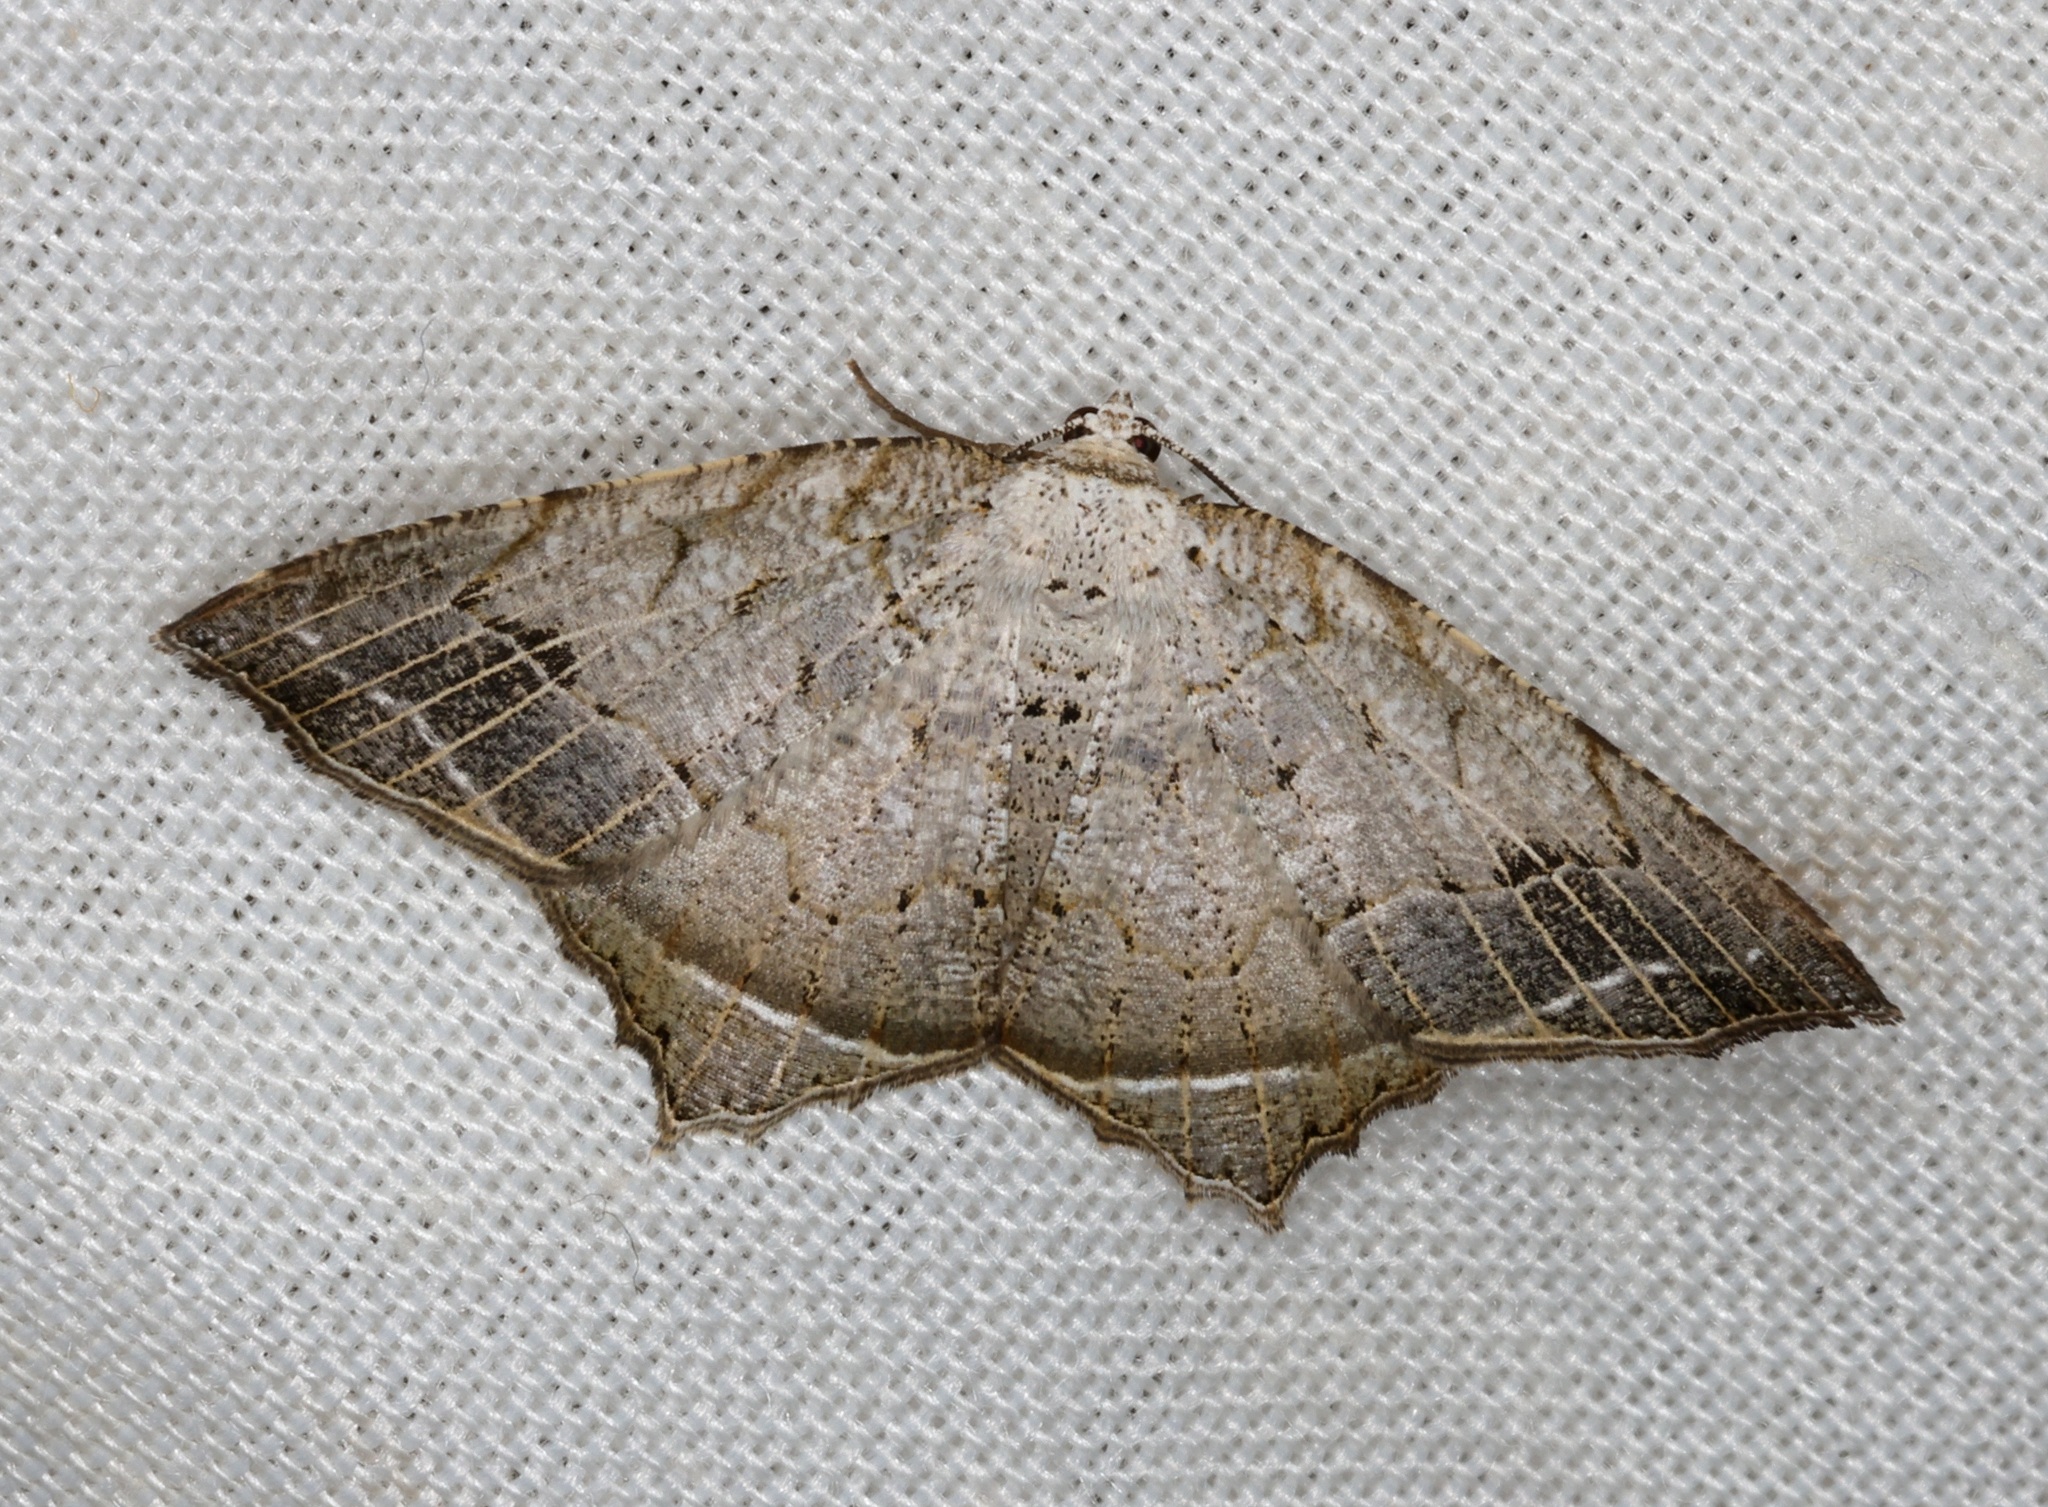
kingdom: Animalia
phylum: Arthropoda
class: Insecta
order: Lepidoptera
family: Geometridae
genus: Oxymacaria
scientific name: Oxymacaria temeraria
